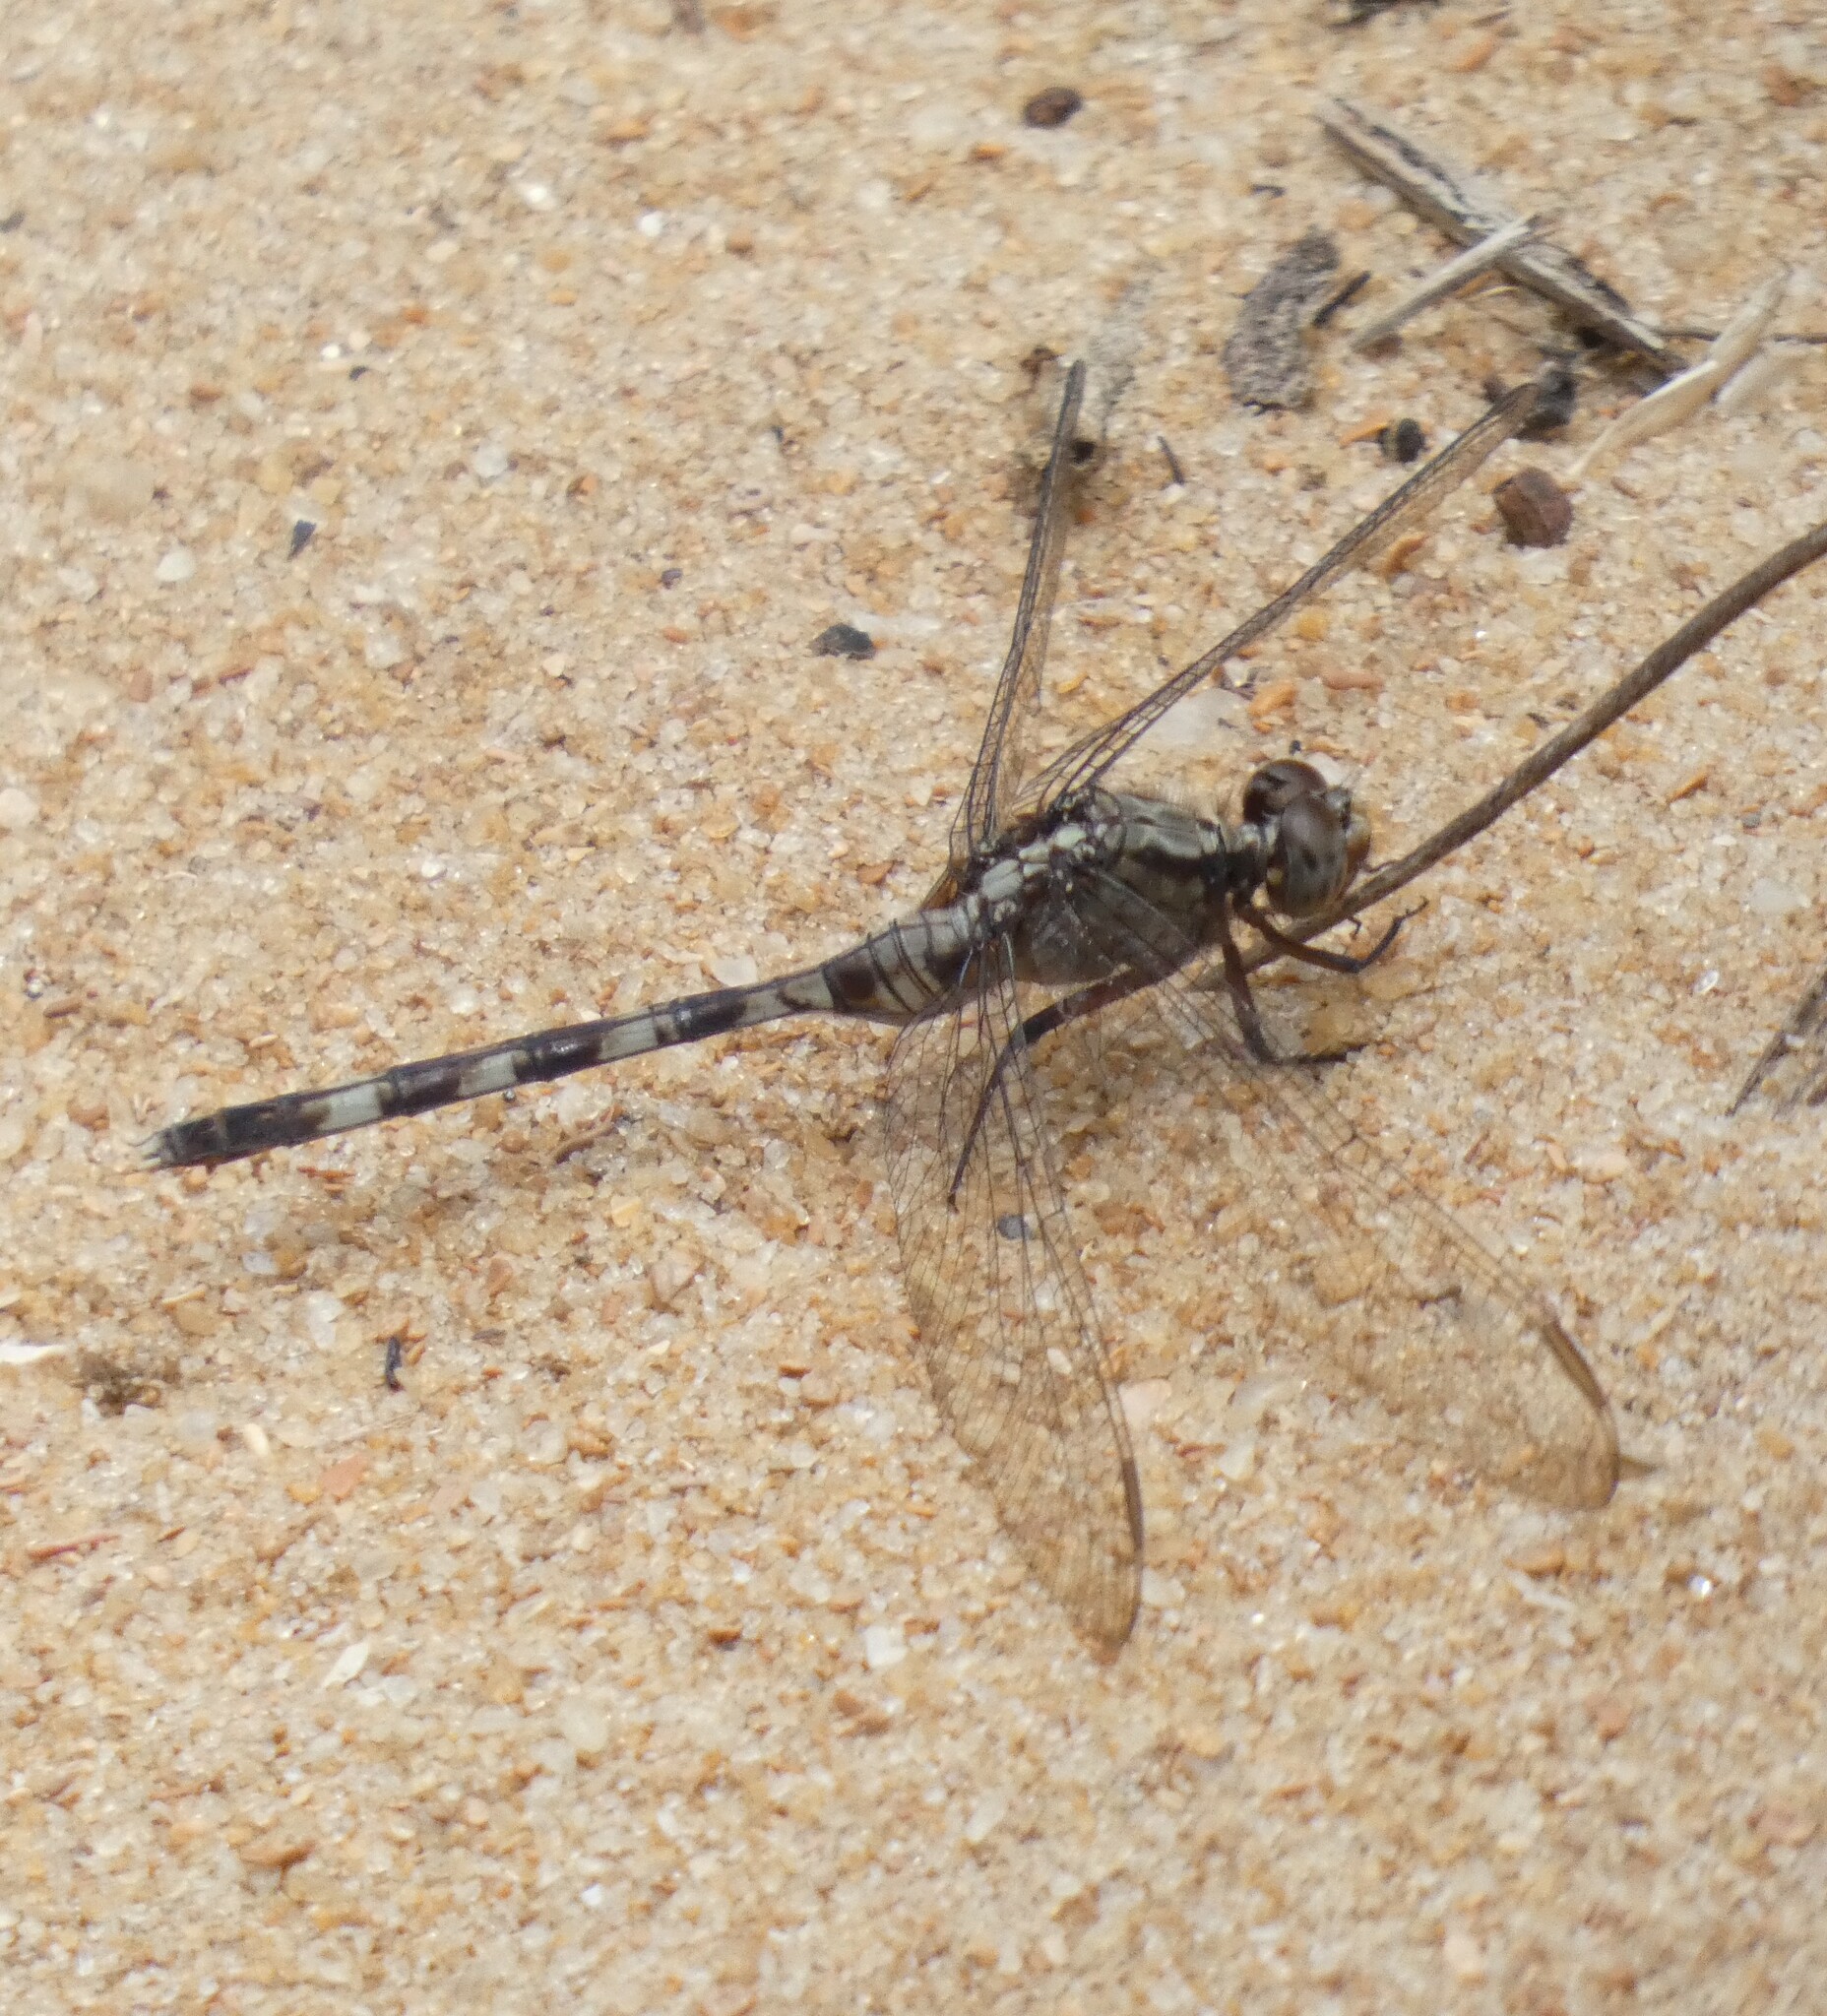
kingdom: Animalia
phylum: Arthropoda
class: Insecta
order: Odonata
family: Libellulidae
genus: Erythemis
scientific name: Erythemis plebeja
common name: Pin-tailed pondhawk
